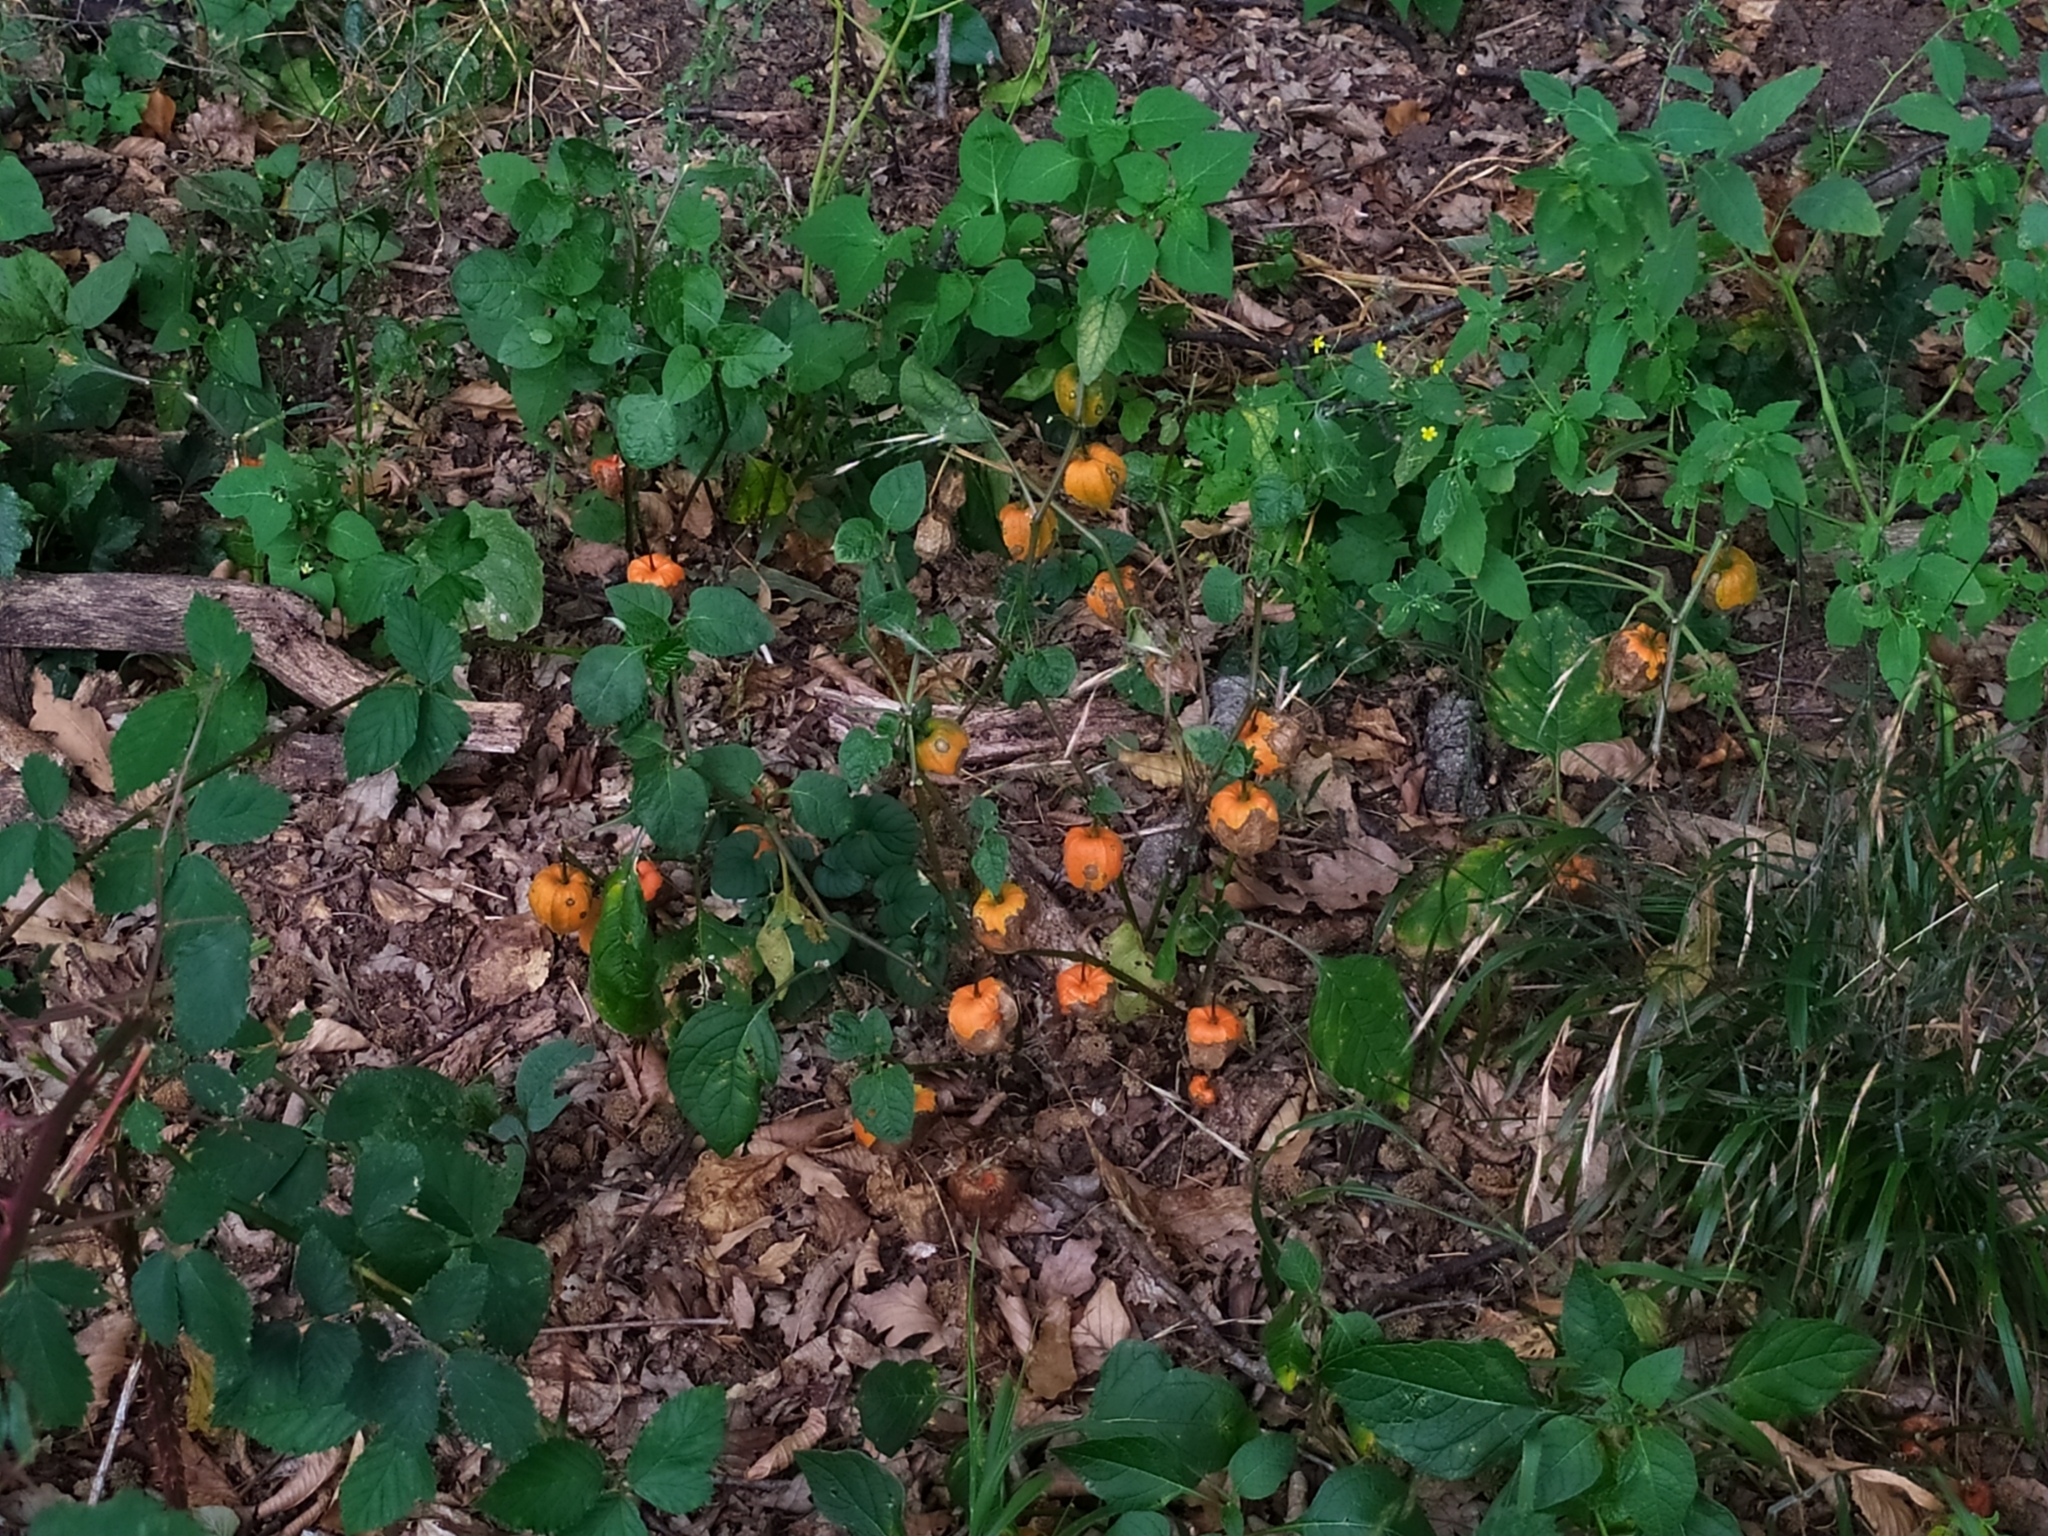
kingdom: Plantae
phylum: Tracheophyta
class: Magnoliopsida
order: Solanales
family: Solanaceae
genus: Alkekengi
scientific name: Alkekengi officinarum
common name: Japanese-lantern
